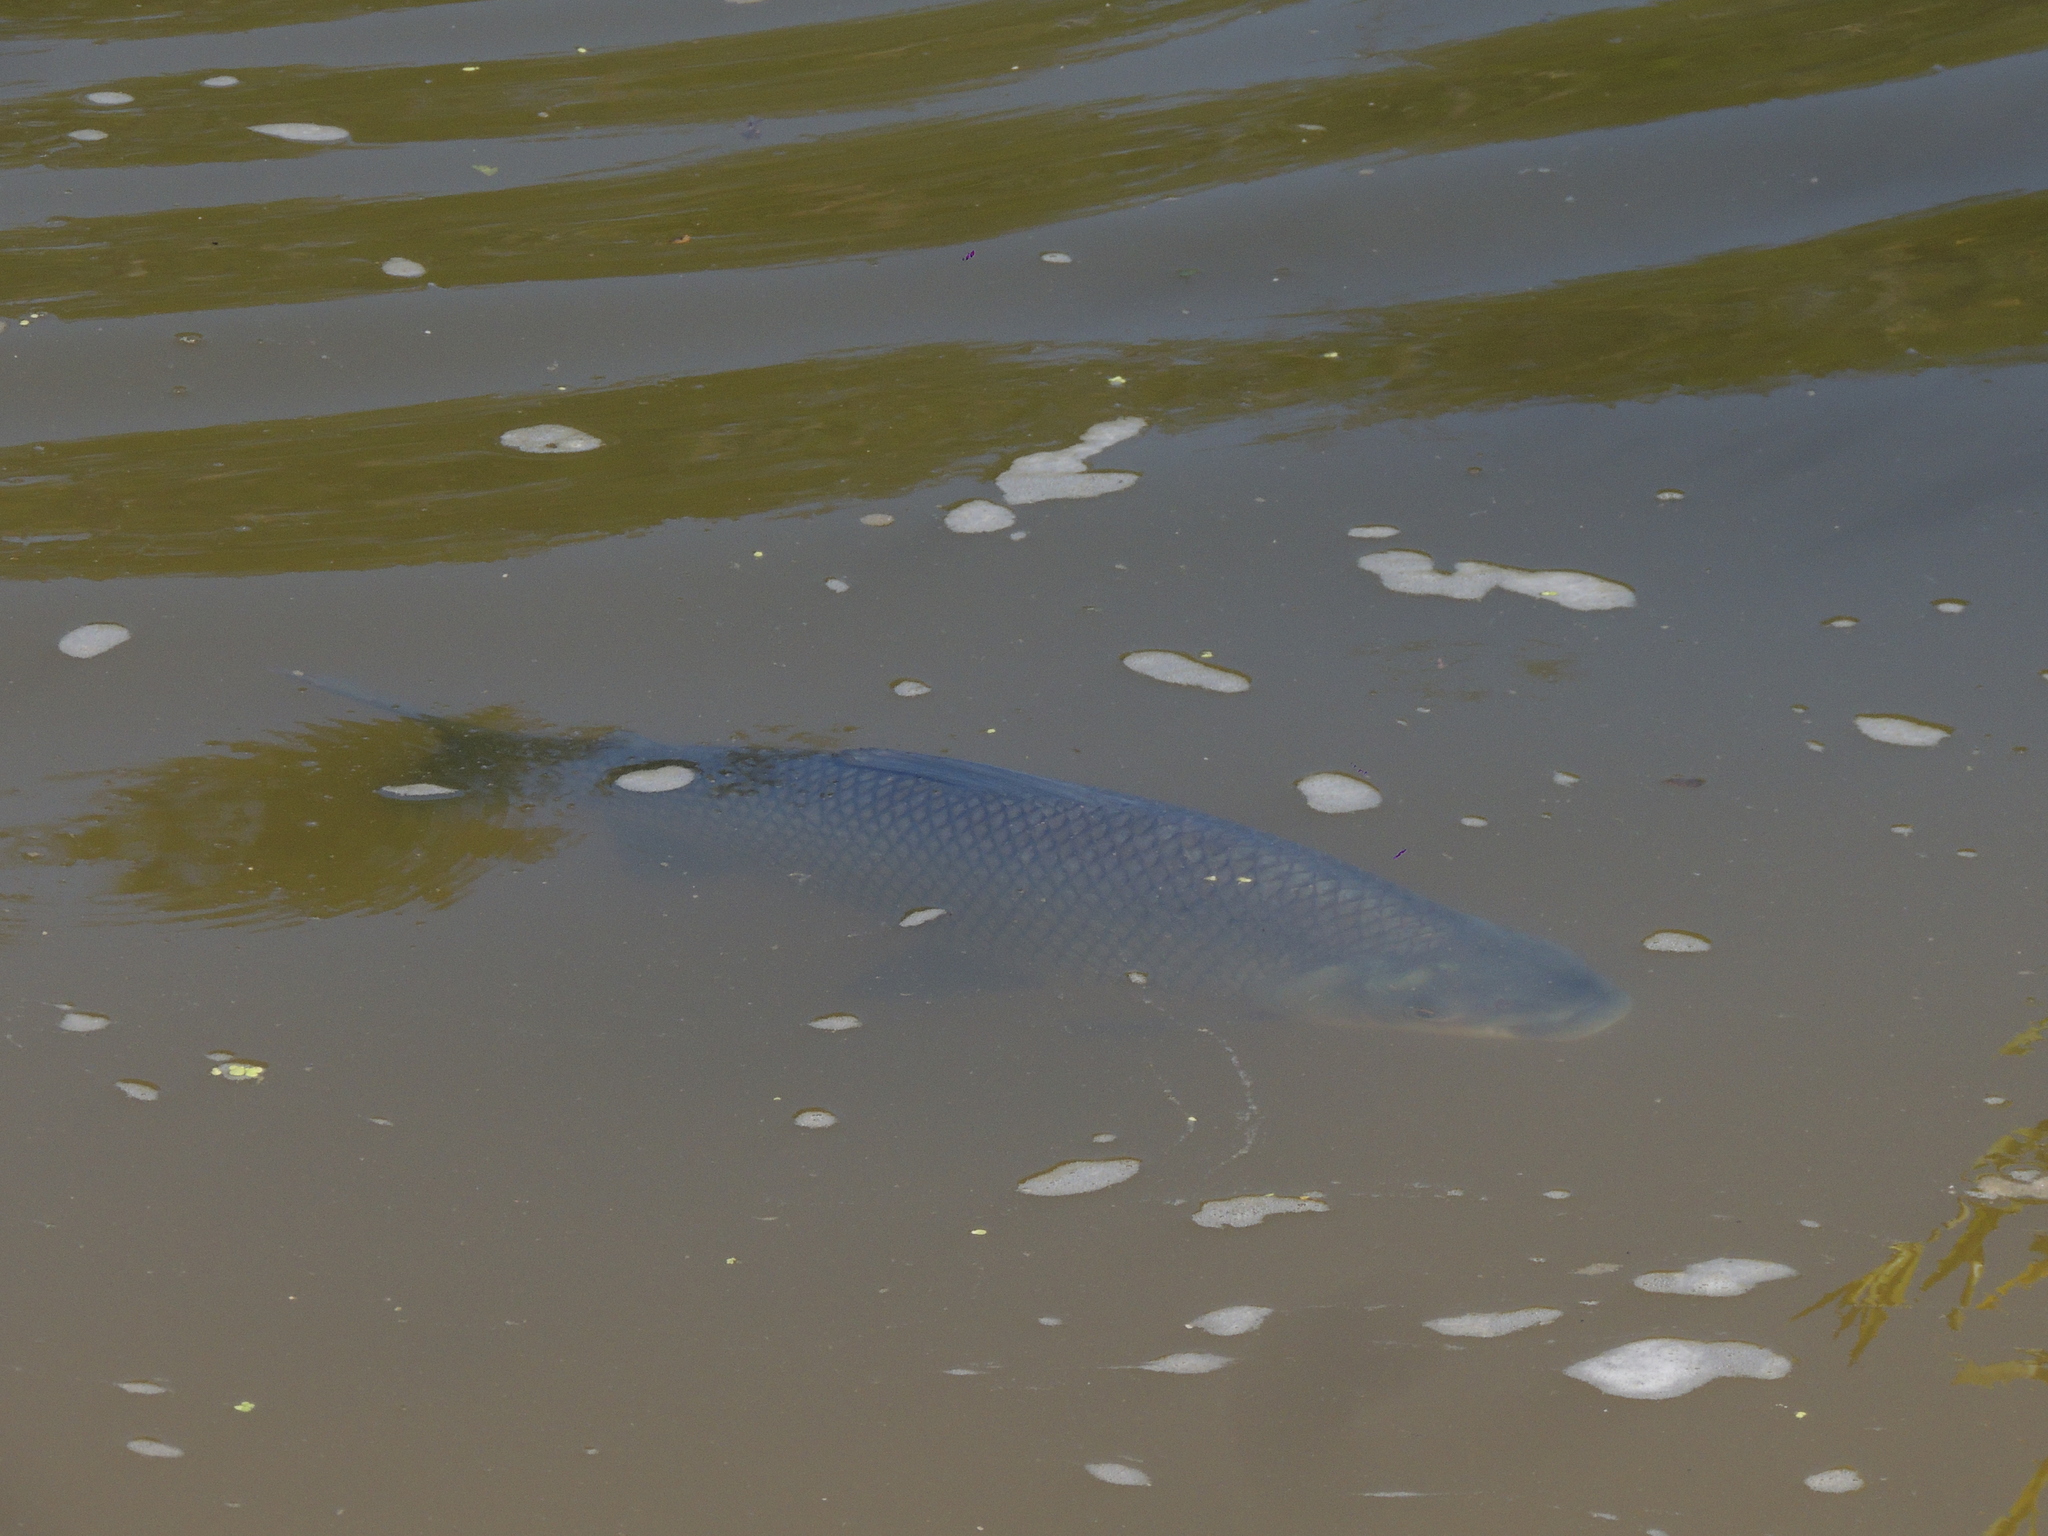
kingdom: Animalia
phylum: Chordata
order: Characiformes
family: Prochilodontidae
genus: Prochilodus
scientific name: Prochilodus lineatus
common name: Curimbata
